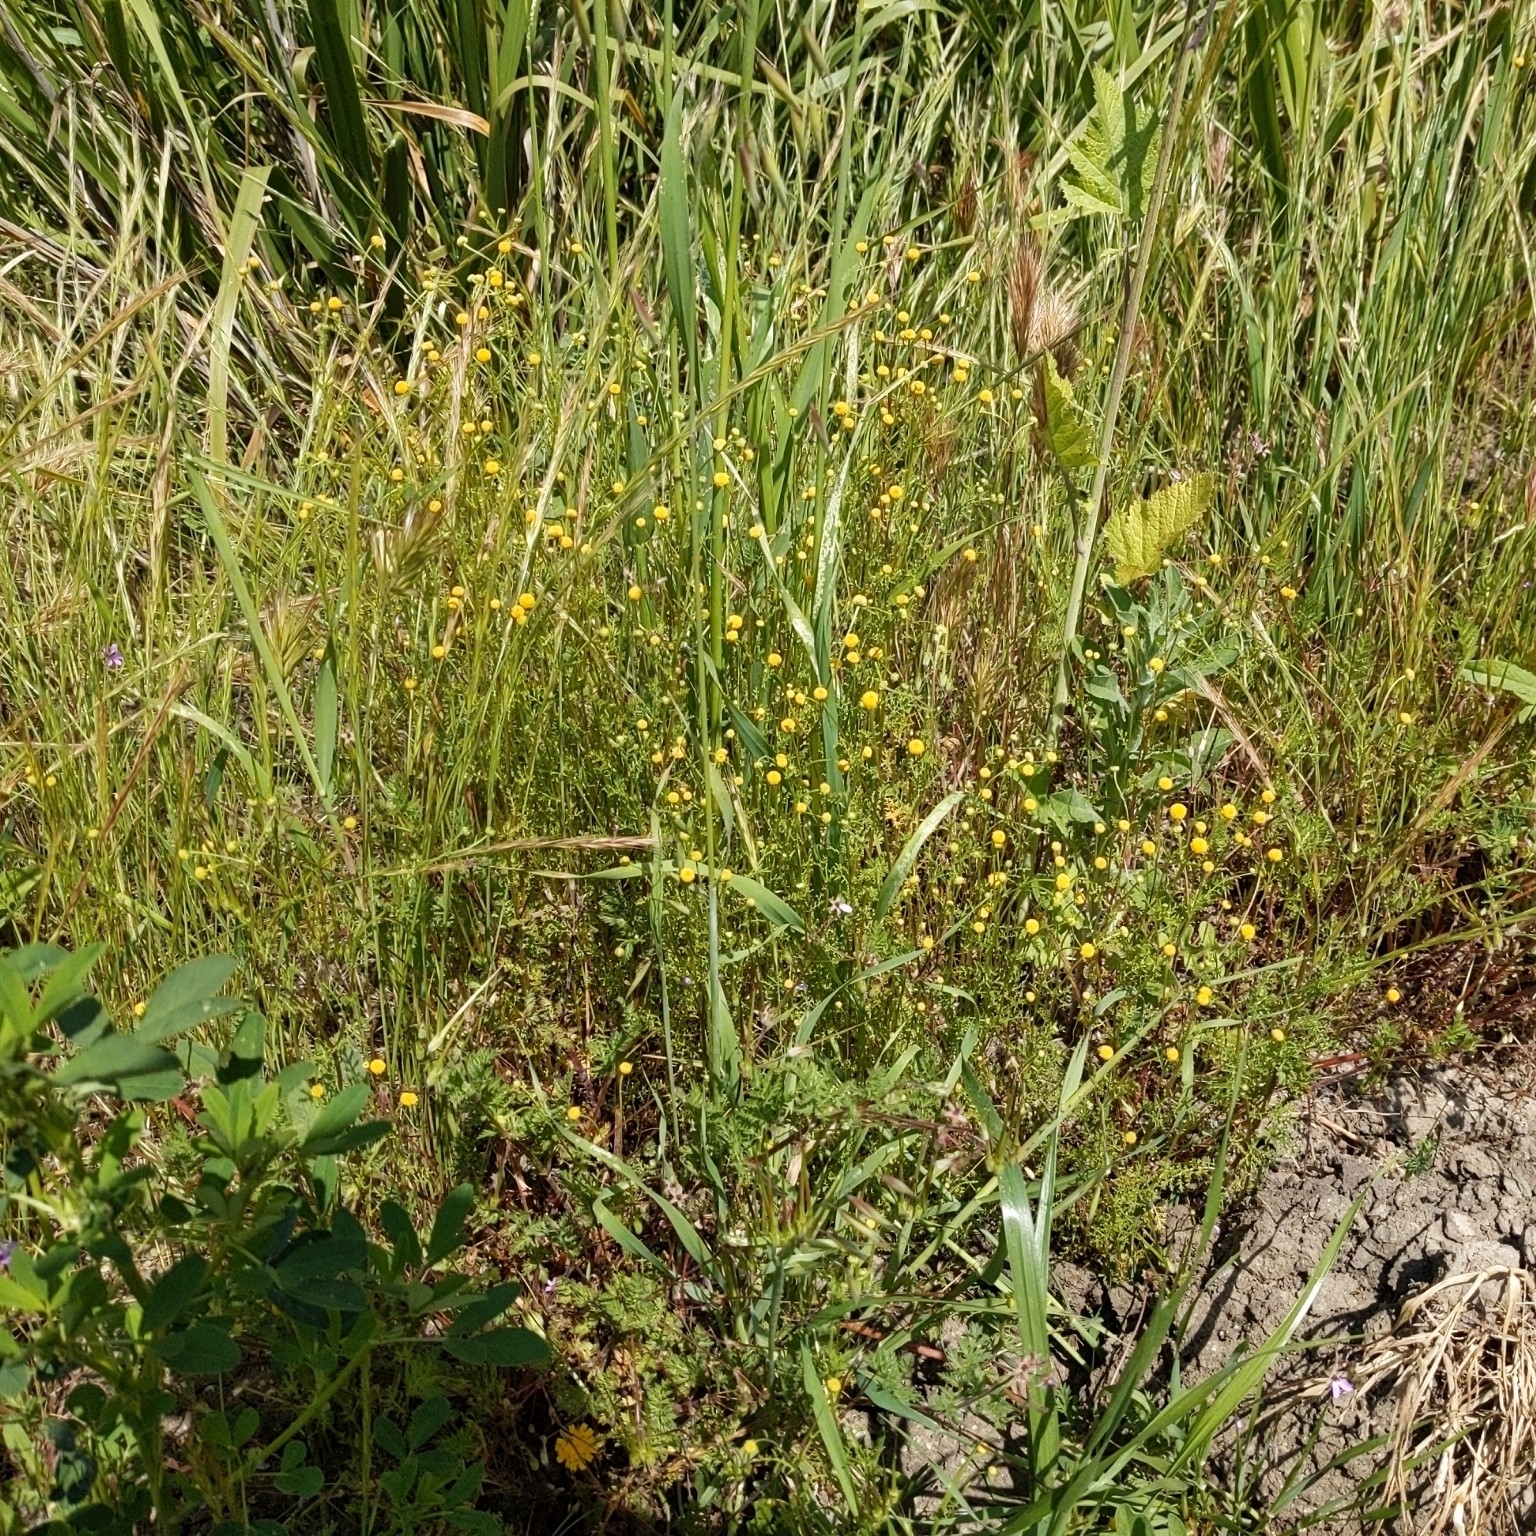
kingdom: Plantae
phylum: Tracheophyta
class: Magnoliopsida
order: Asterales
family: Asteraceae
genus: Oncosiphon
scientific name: Oncosiphon pilulifer
